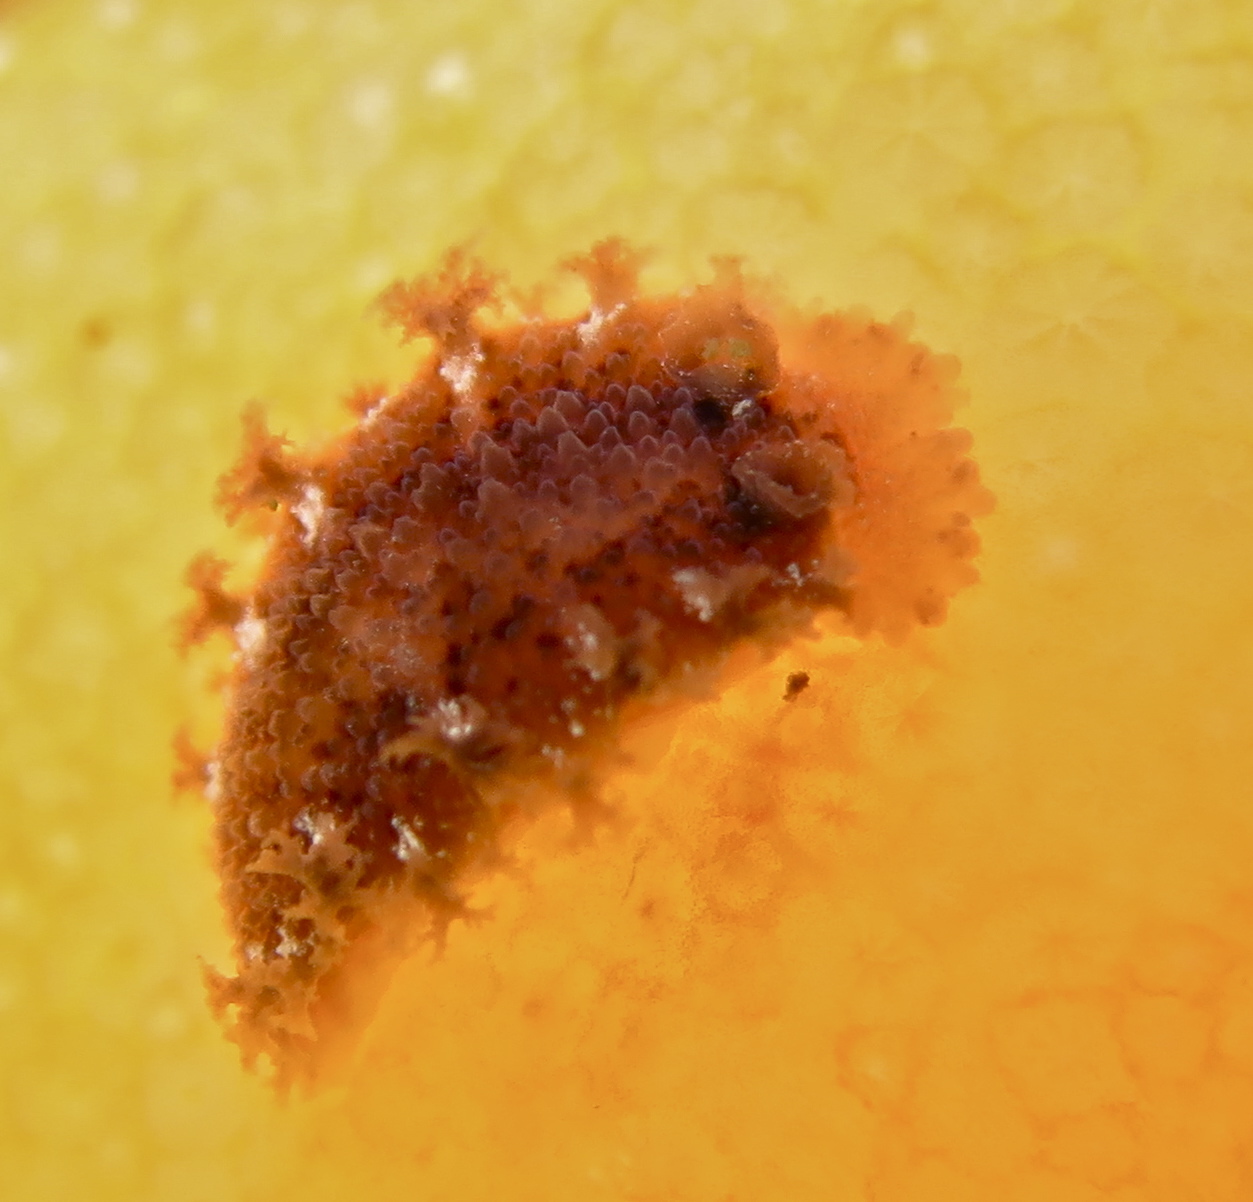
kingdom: Animalia
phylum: Mollusca
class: Gastropoda
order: Nudibranchia
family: Tritoniidae
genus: Tritonia
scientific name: Tritonia hombergii
